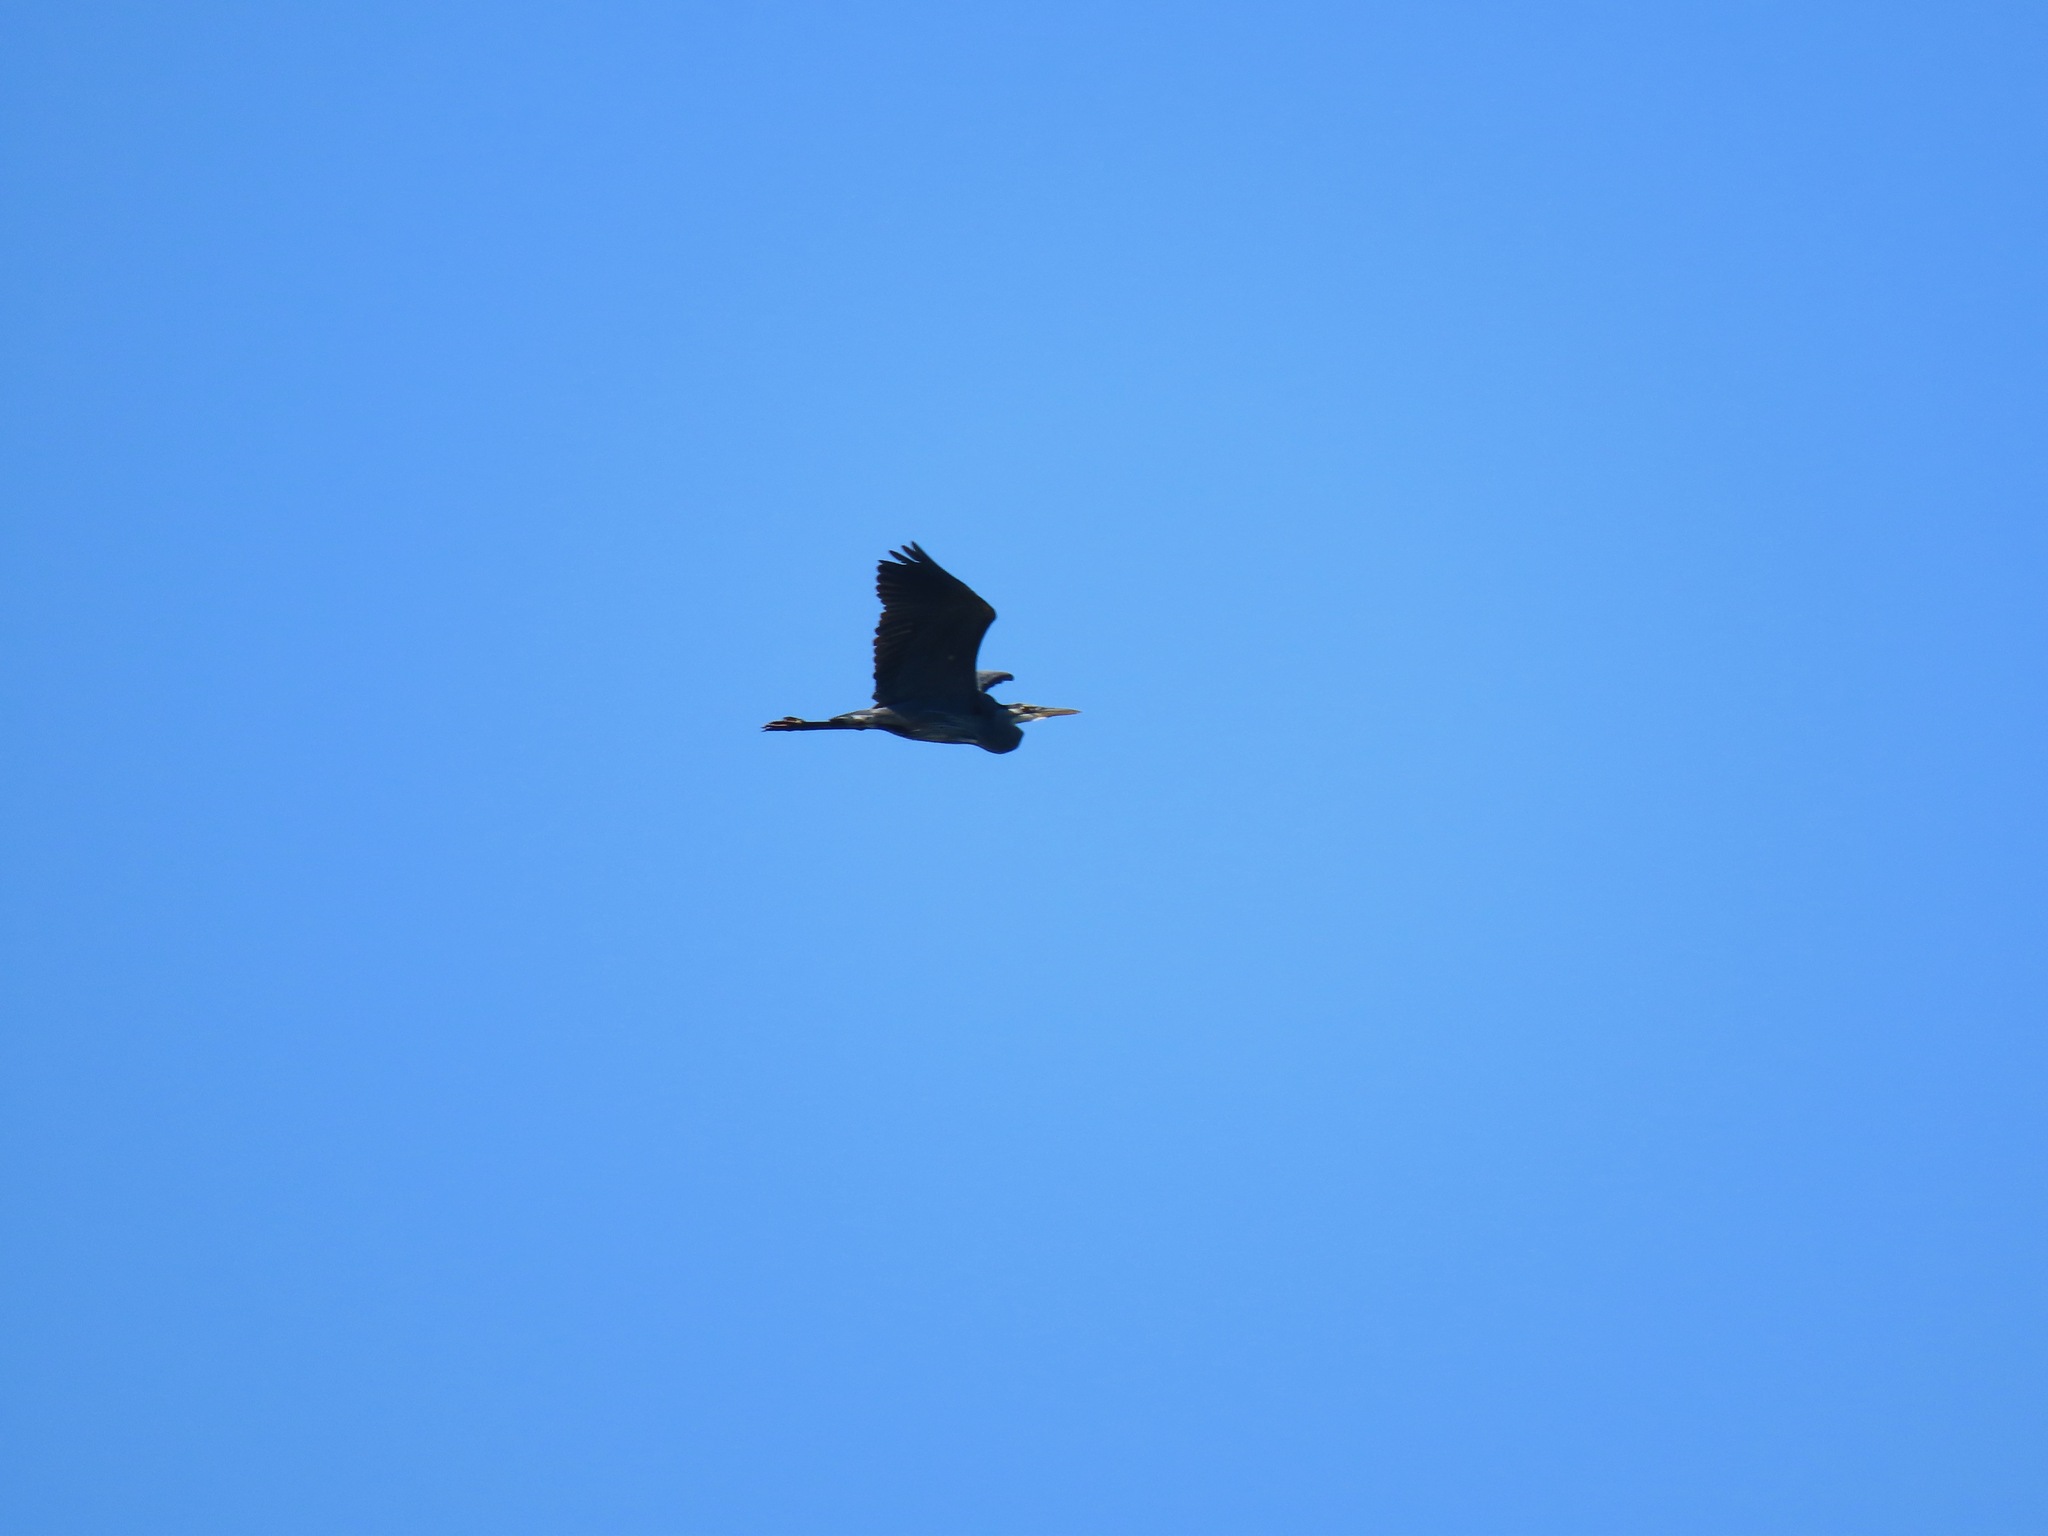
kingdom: Animalia
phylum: Chordata
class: Aves
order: Pelecaniformes
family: Ardeidae
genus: Ardea
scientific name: Ardea herodias
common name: Great blue heron
